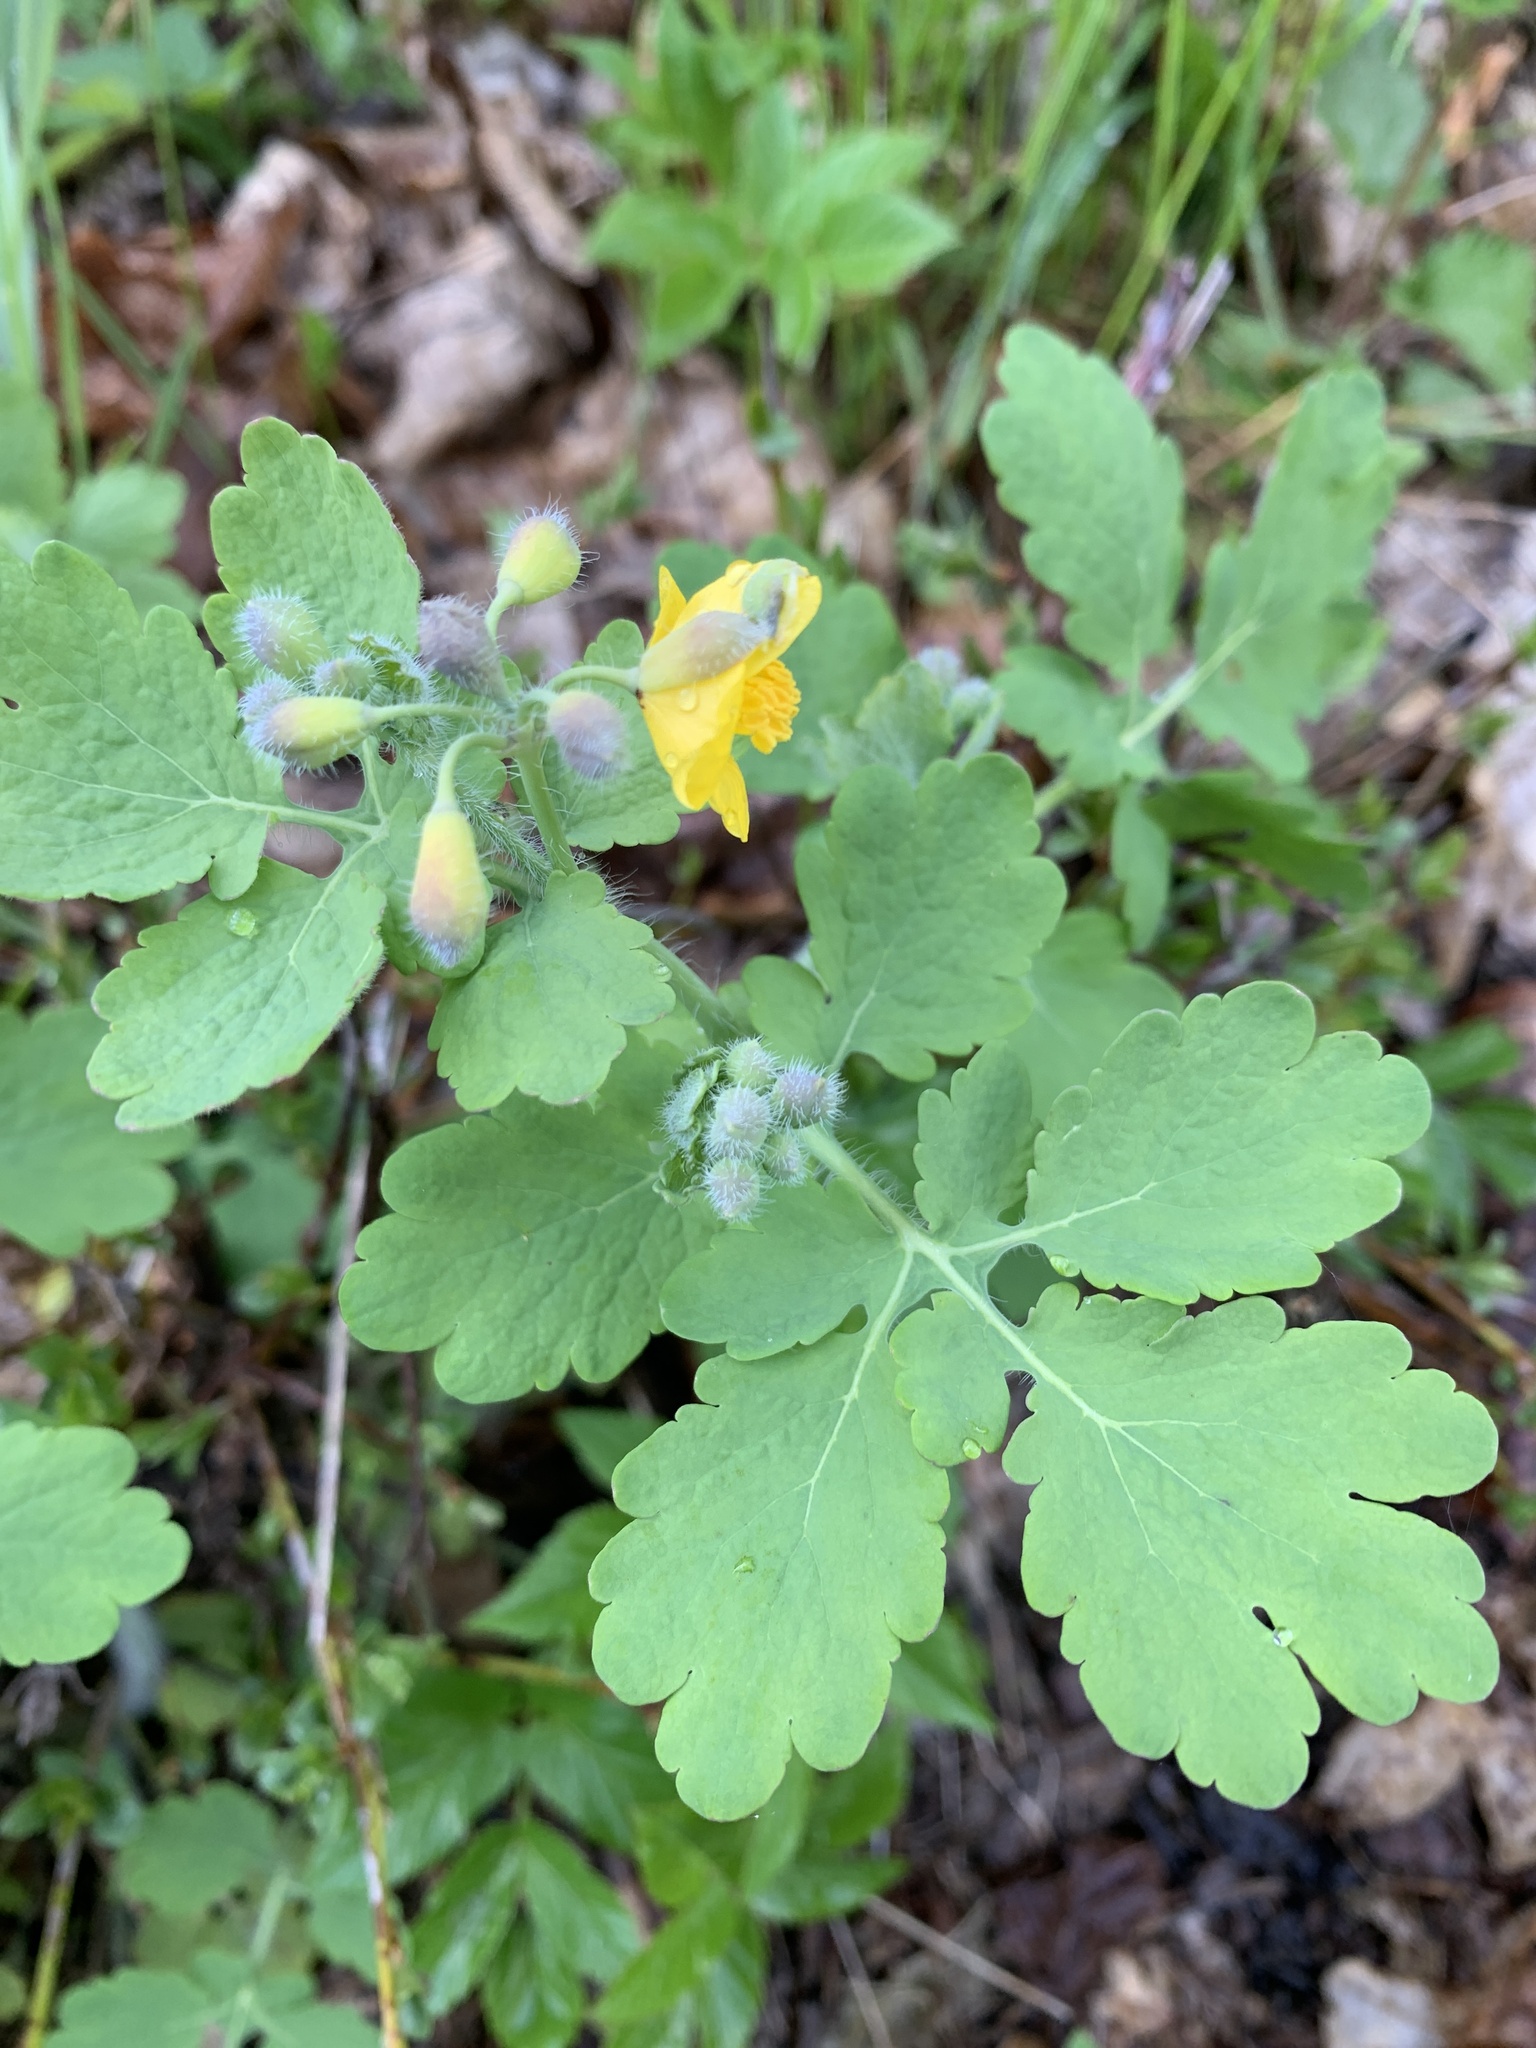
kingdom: Plantae
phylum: Tracheophyta
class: Magnoliopsida
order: Ranunculales
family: Papaveraceae
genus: Chelidonium
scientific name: Chelidonium majus
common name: Greater celandine
